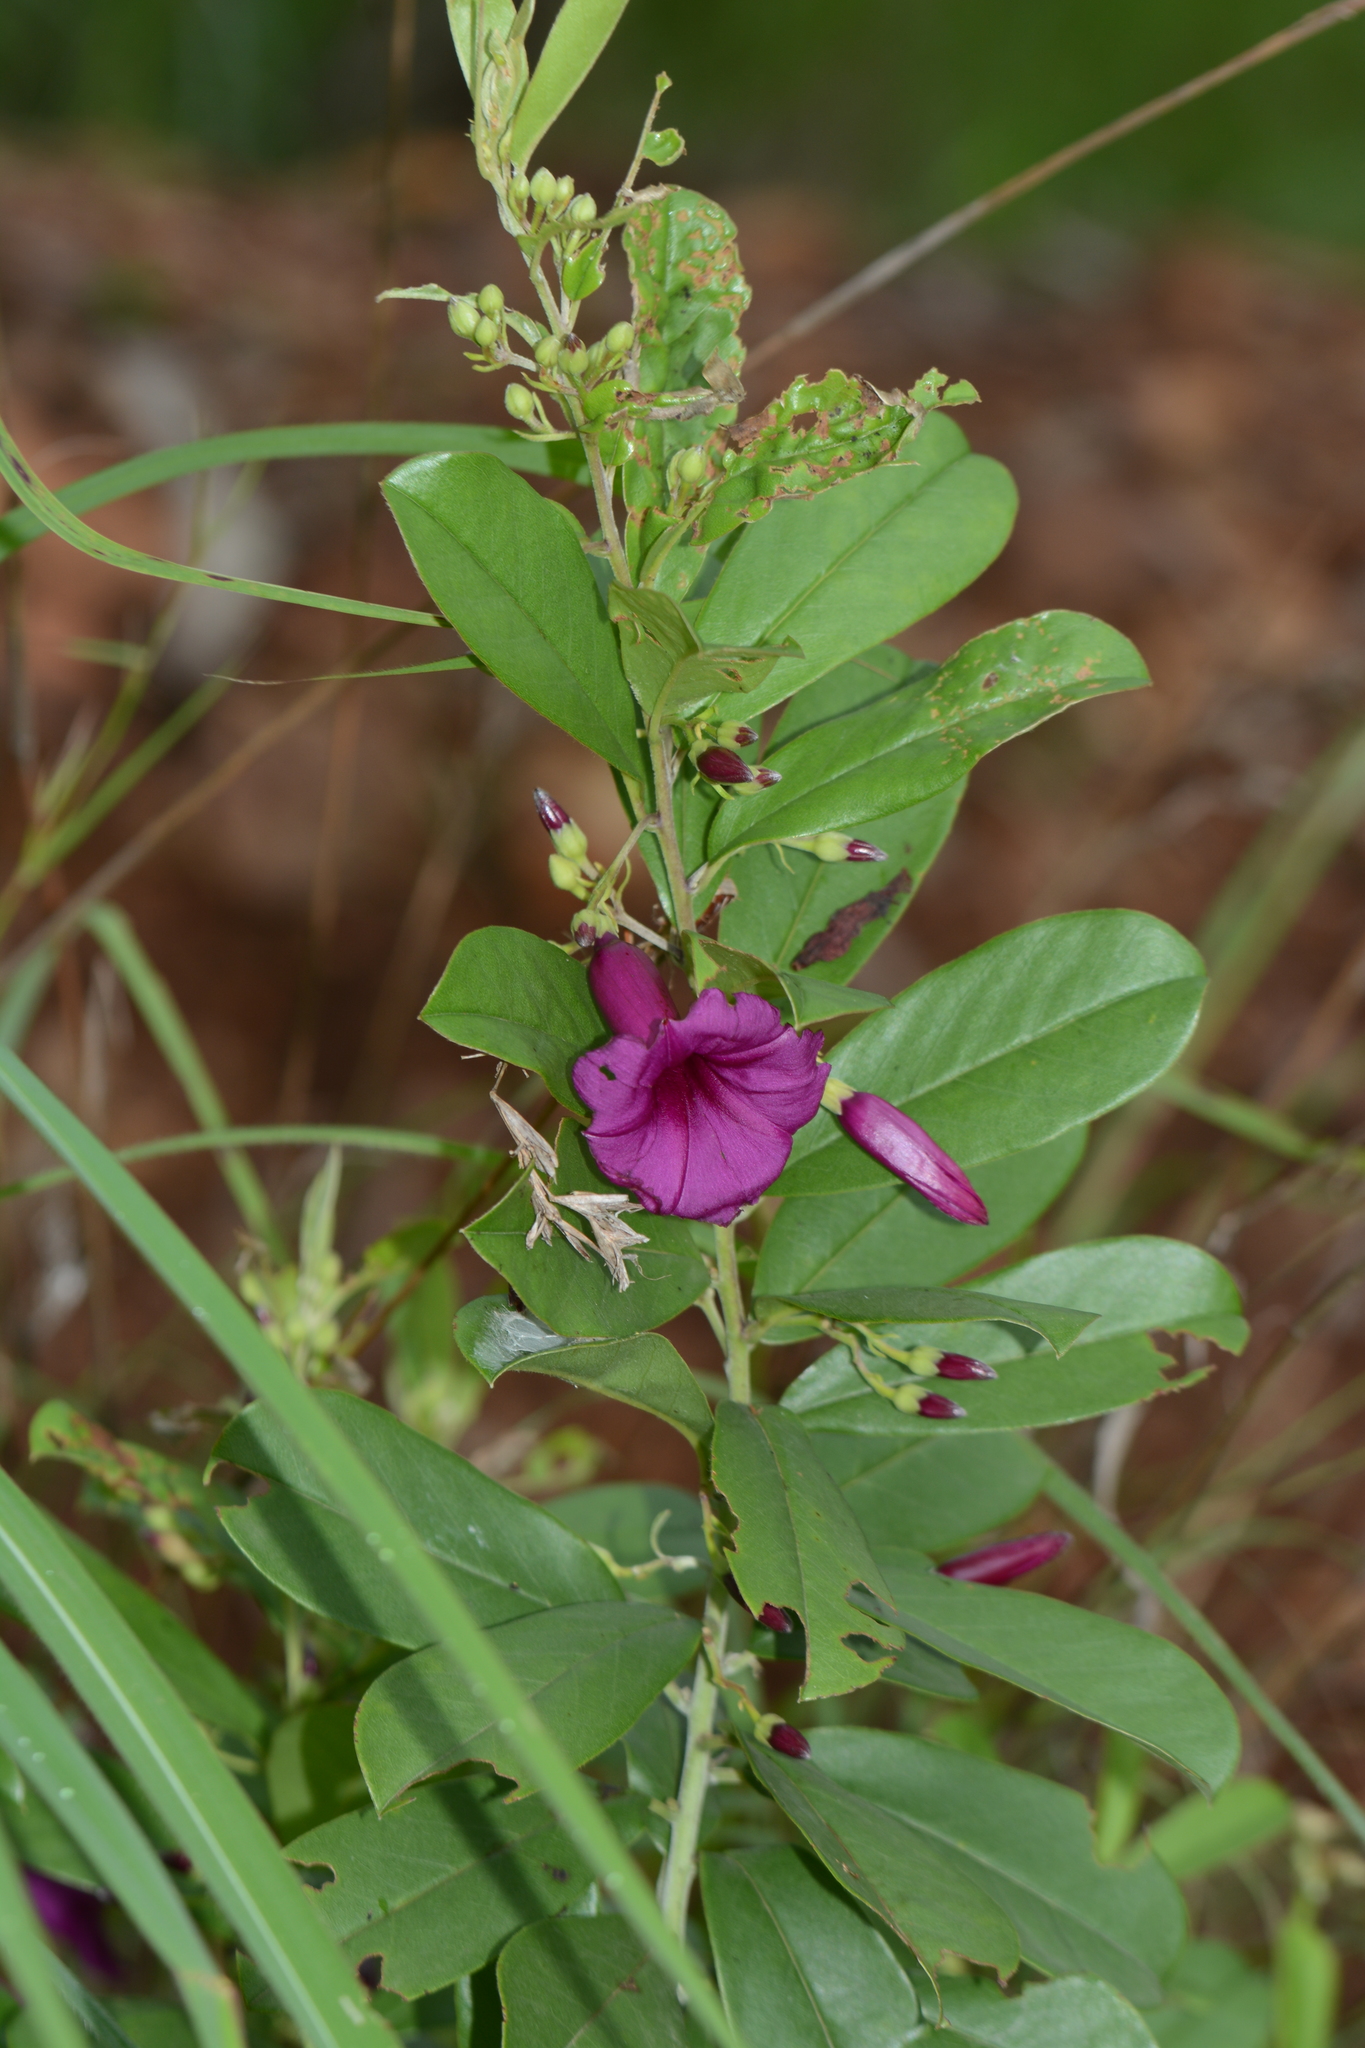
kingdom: Plantae
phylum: Tracheophyta
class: Magnoliopsida
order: Solanales
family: Convolvulaceae
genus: Argyreia
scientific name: Argyreia cuneata
